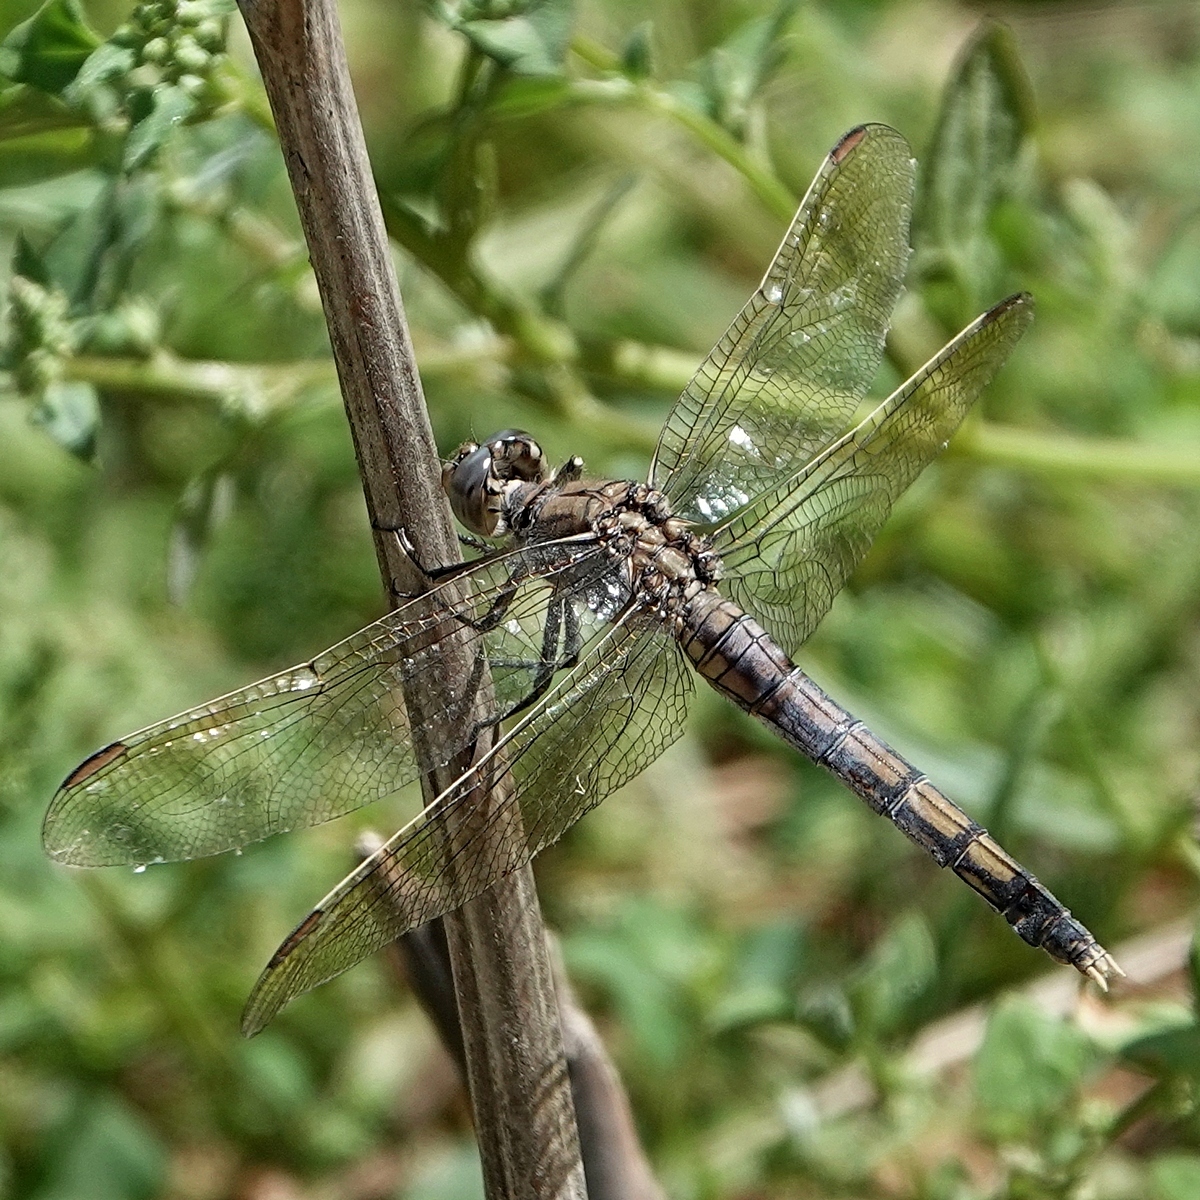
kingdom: Animalia
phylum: Arthropoda
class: Insecta
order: Odonata
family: Libellulidae
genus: Orthetrum
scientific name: Orthetrum caledonicum
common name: Blue skimmer
